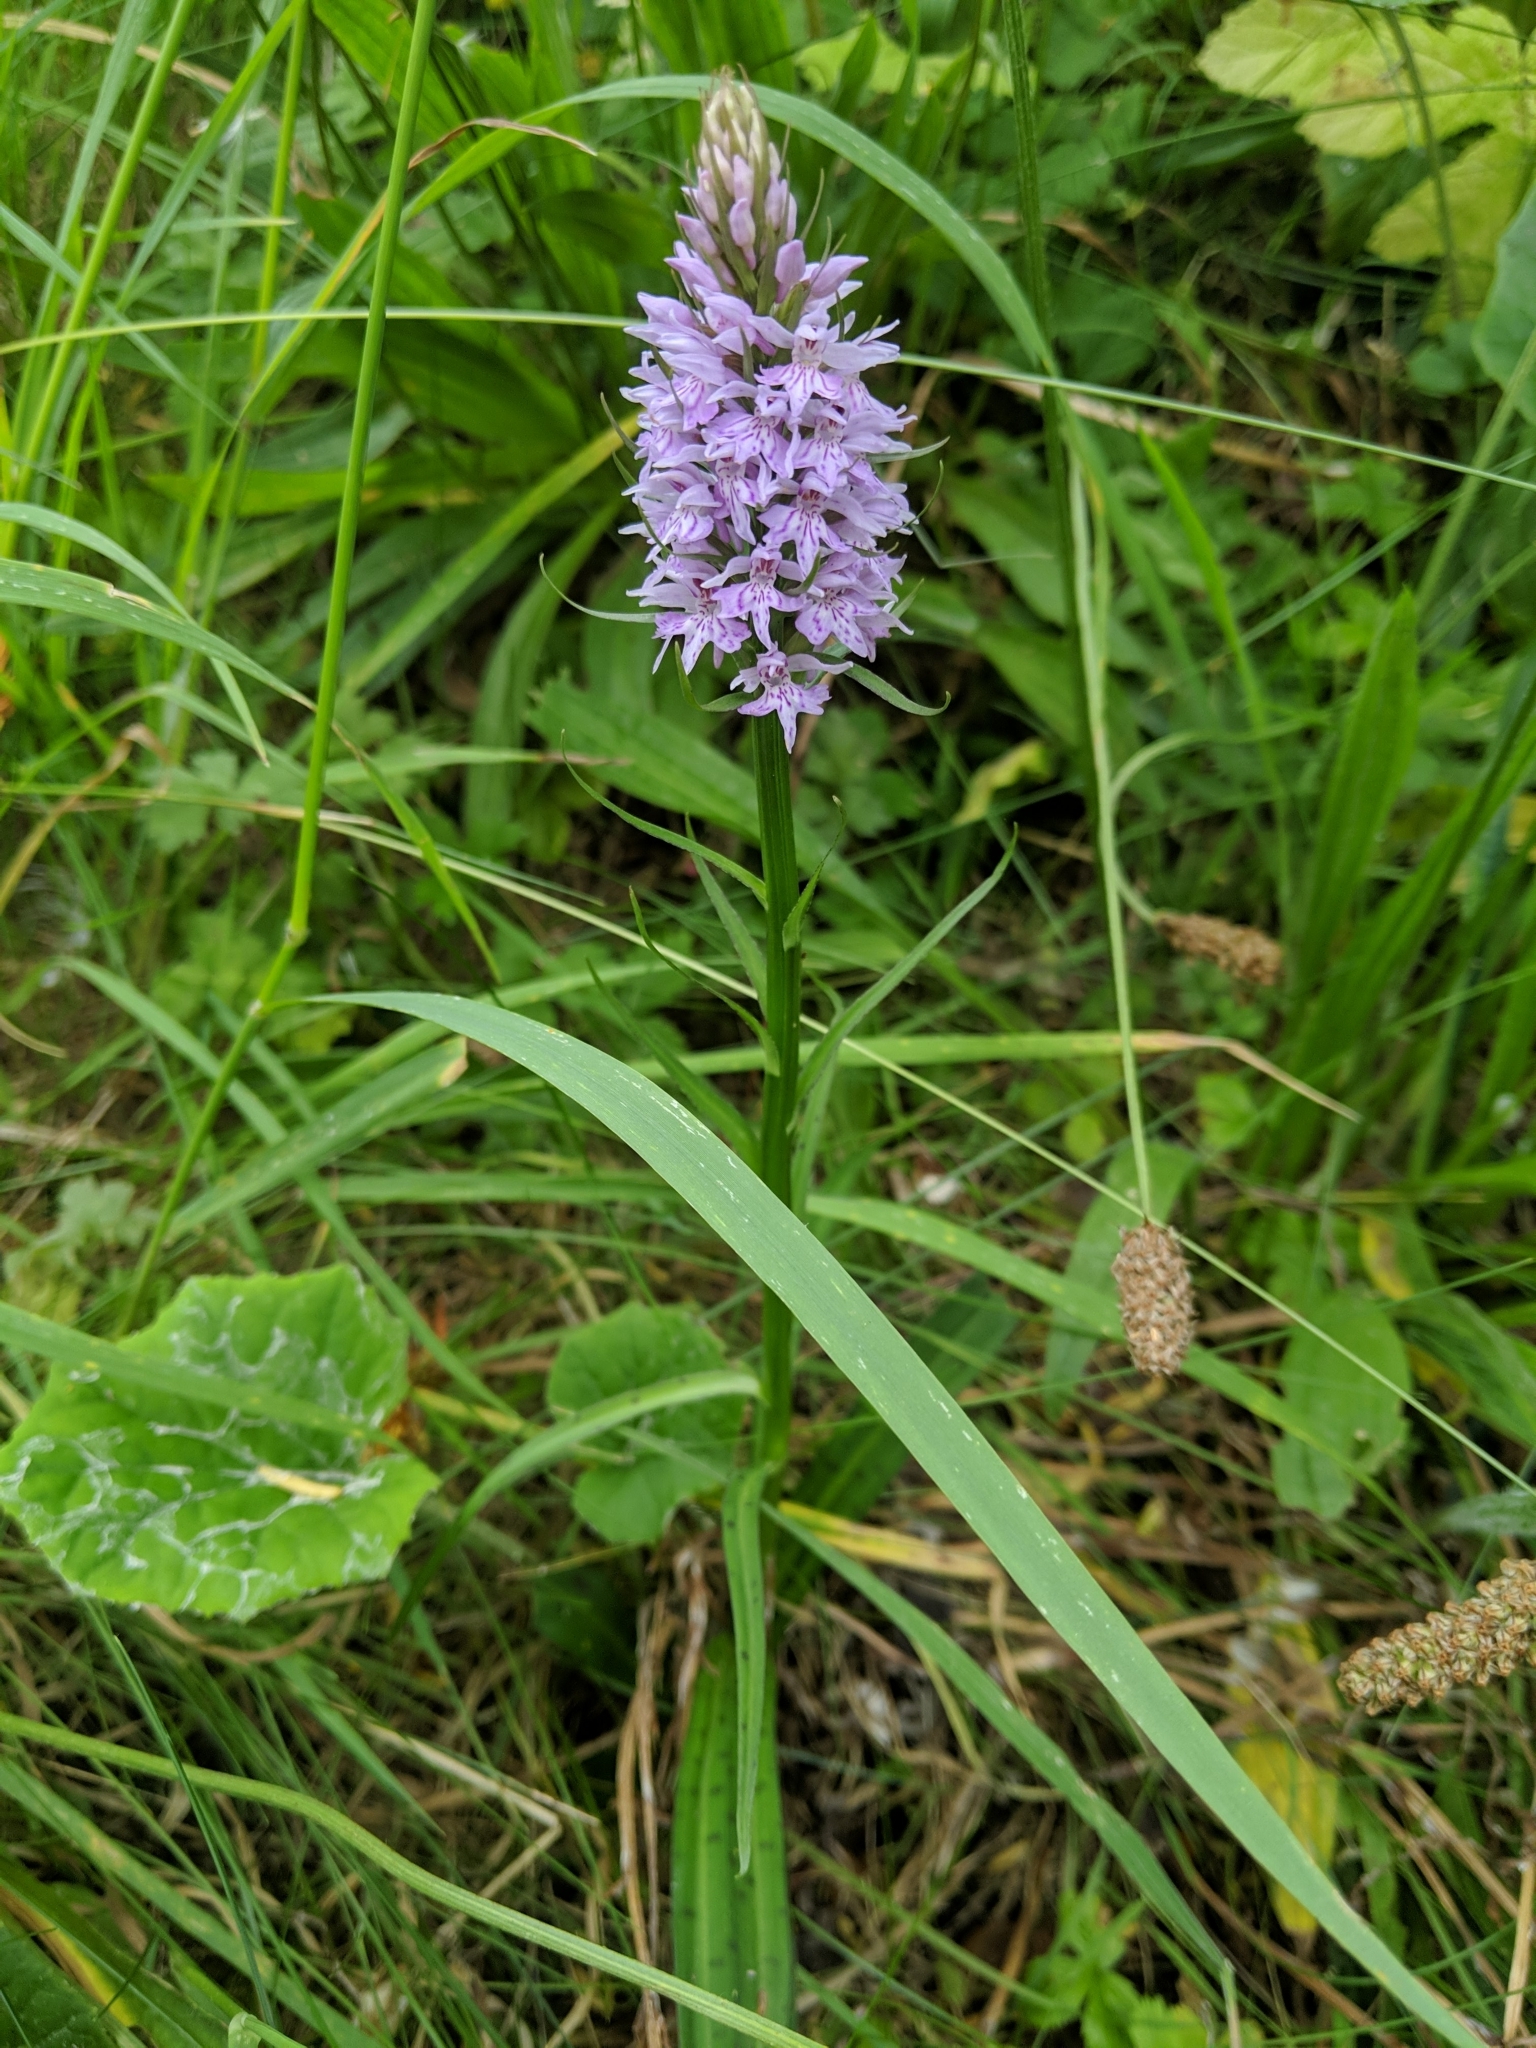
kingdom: Plantae
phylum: Tracheophyta
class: Liliopsida
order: Asparagales
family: Orchidaceae
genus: Dactylorhiza
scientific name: Dactylorhiza maculata
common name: Heath spotted-orchid
